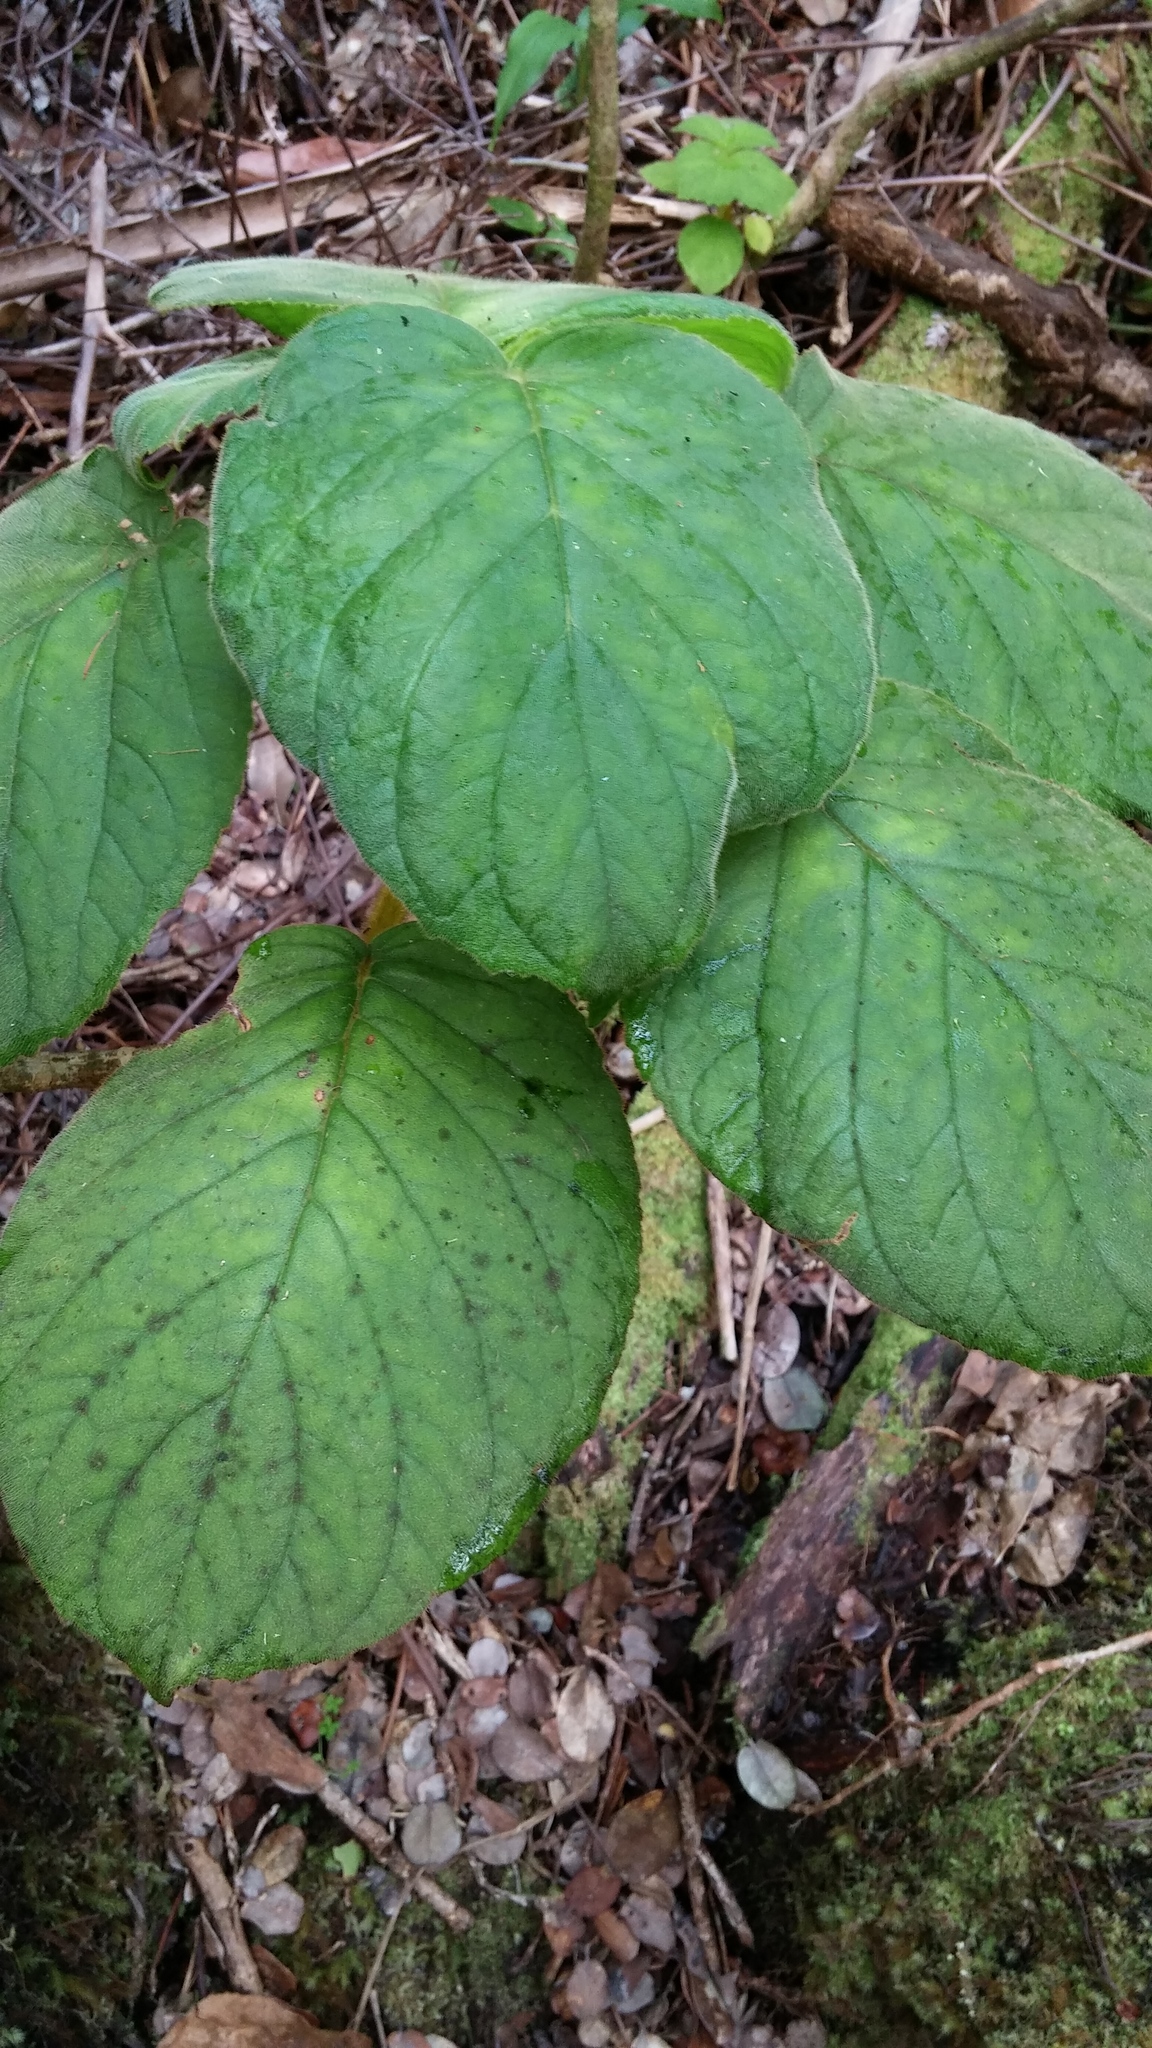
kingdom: Plantae
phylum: Tracheophyta
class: Magnoliopsida
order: Lamiales
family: Gesneriaceae
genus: Cyrtandra
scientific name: Cyrtandra platyphylla
